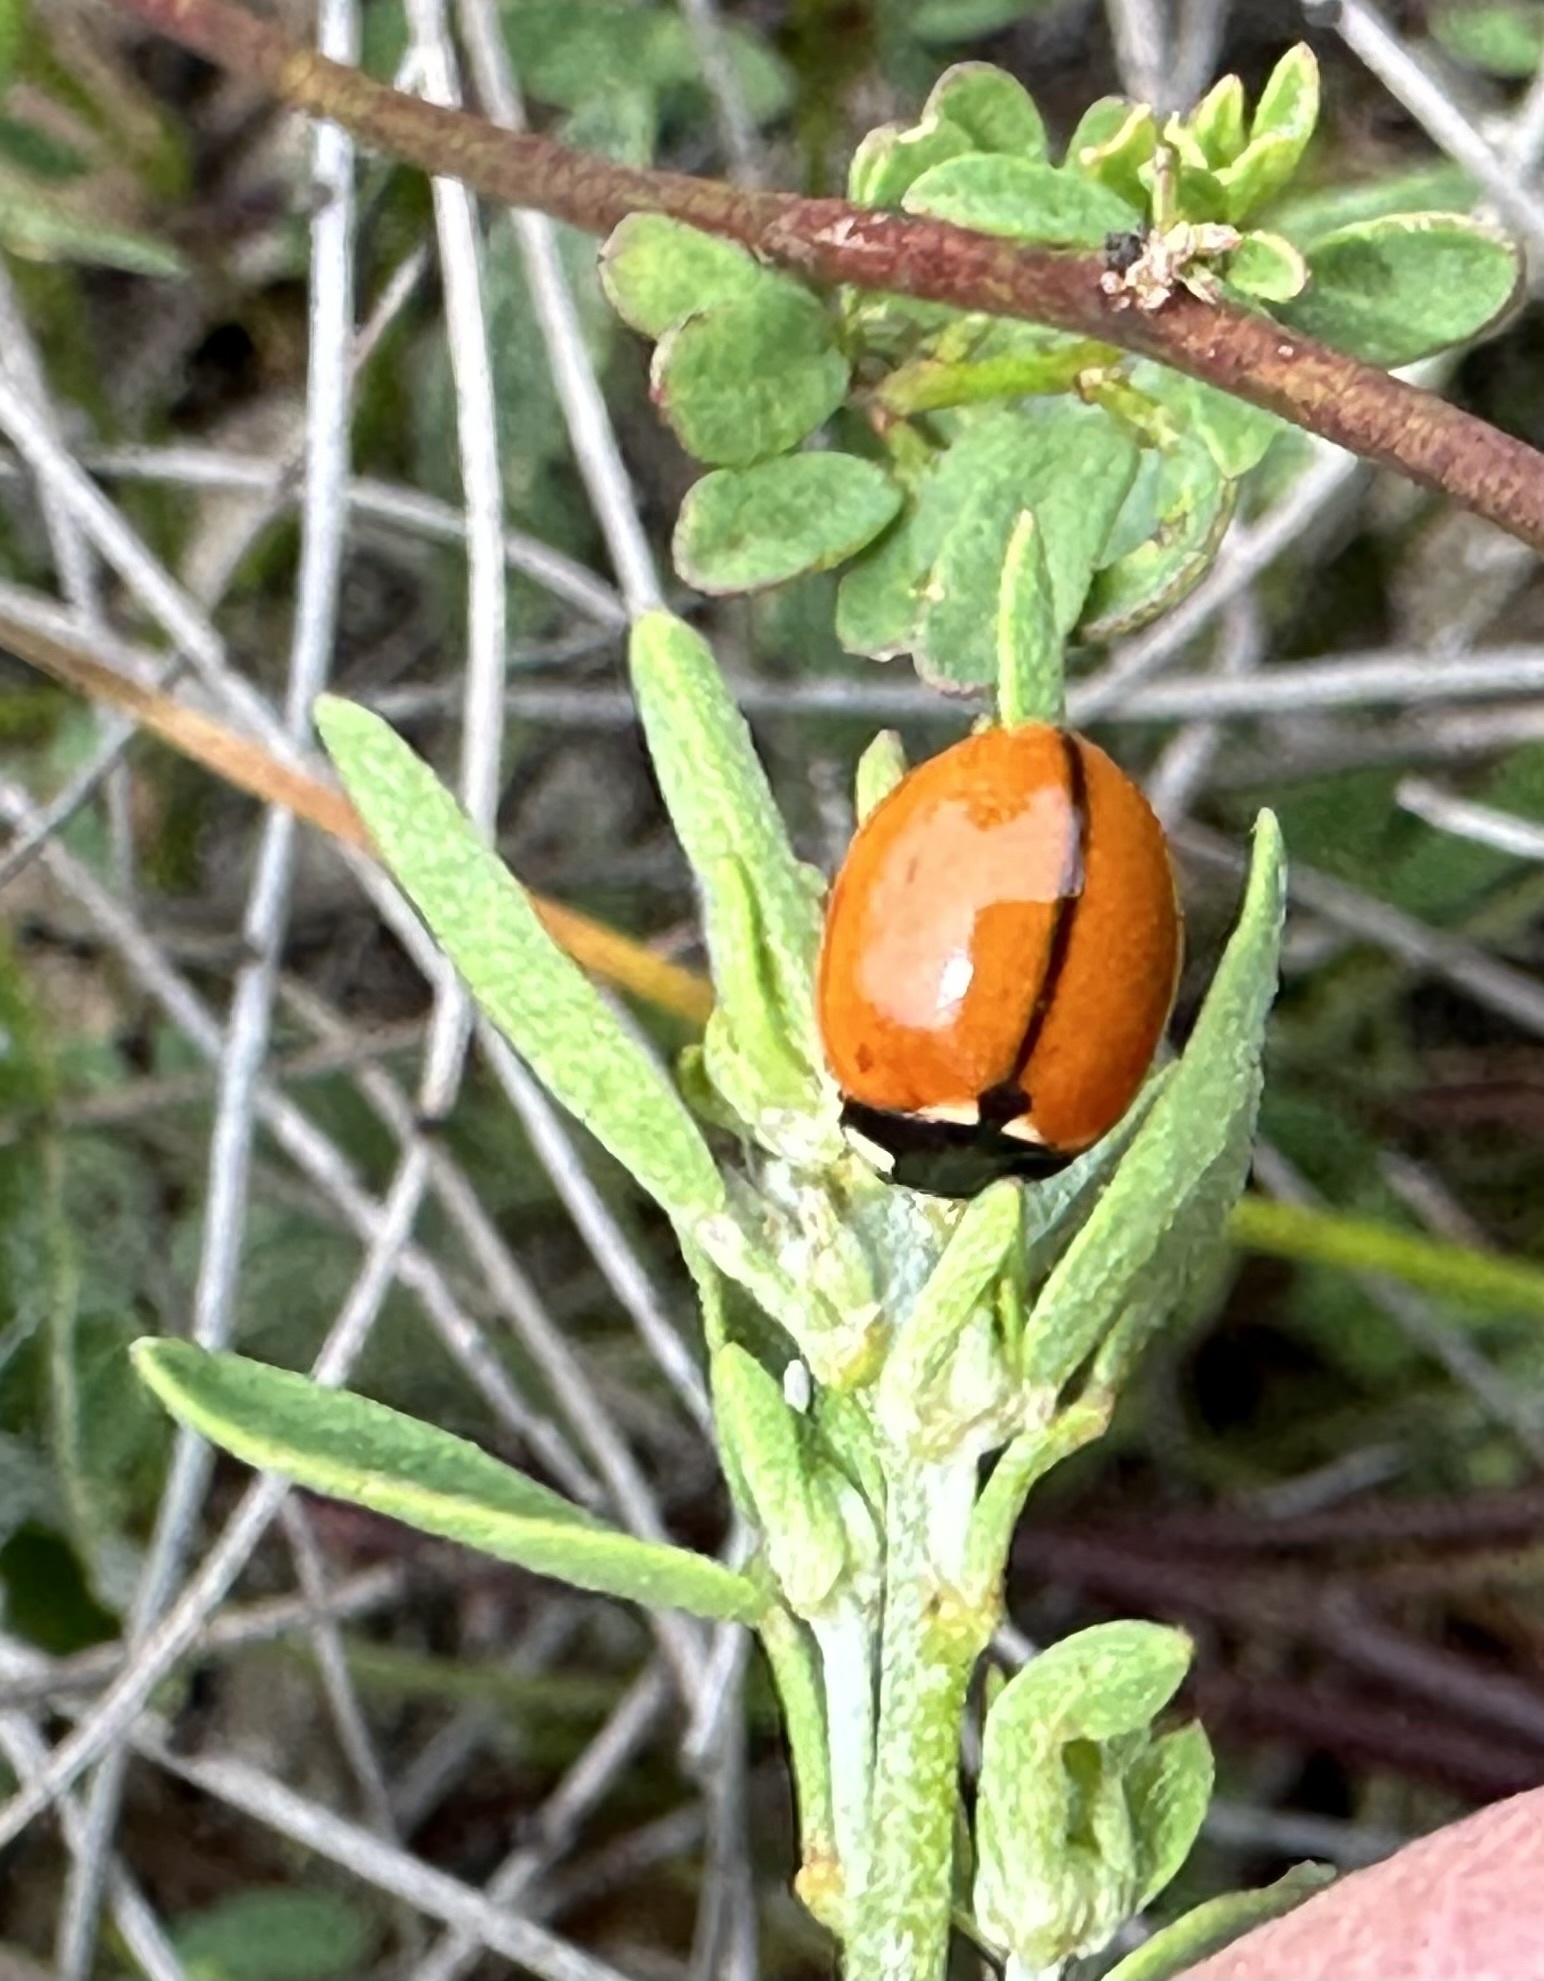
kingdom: Animalia
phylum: Arthropoda
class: Insecta
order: Coleoptera
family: Coccinellidae
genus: Coccinella
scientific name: Coccinella californica
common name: Lady beetle
